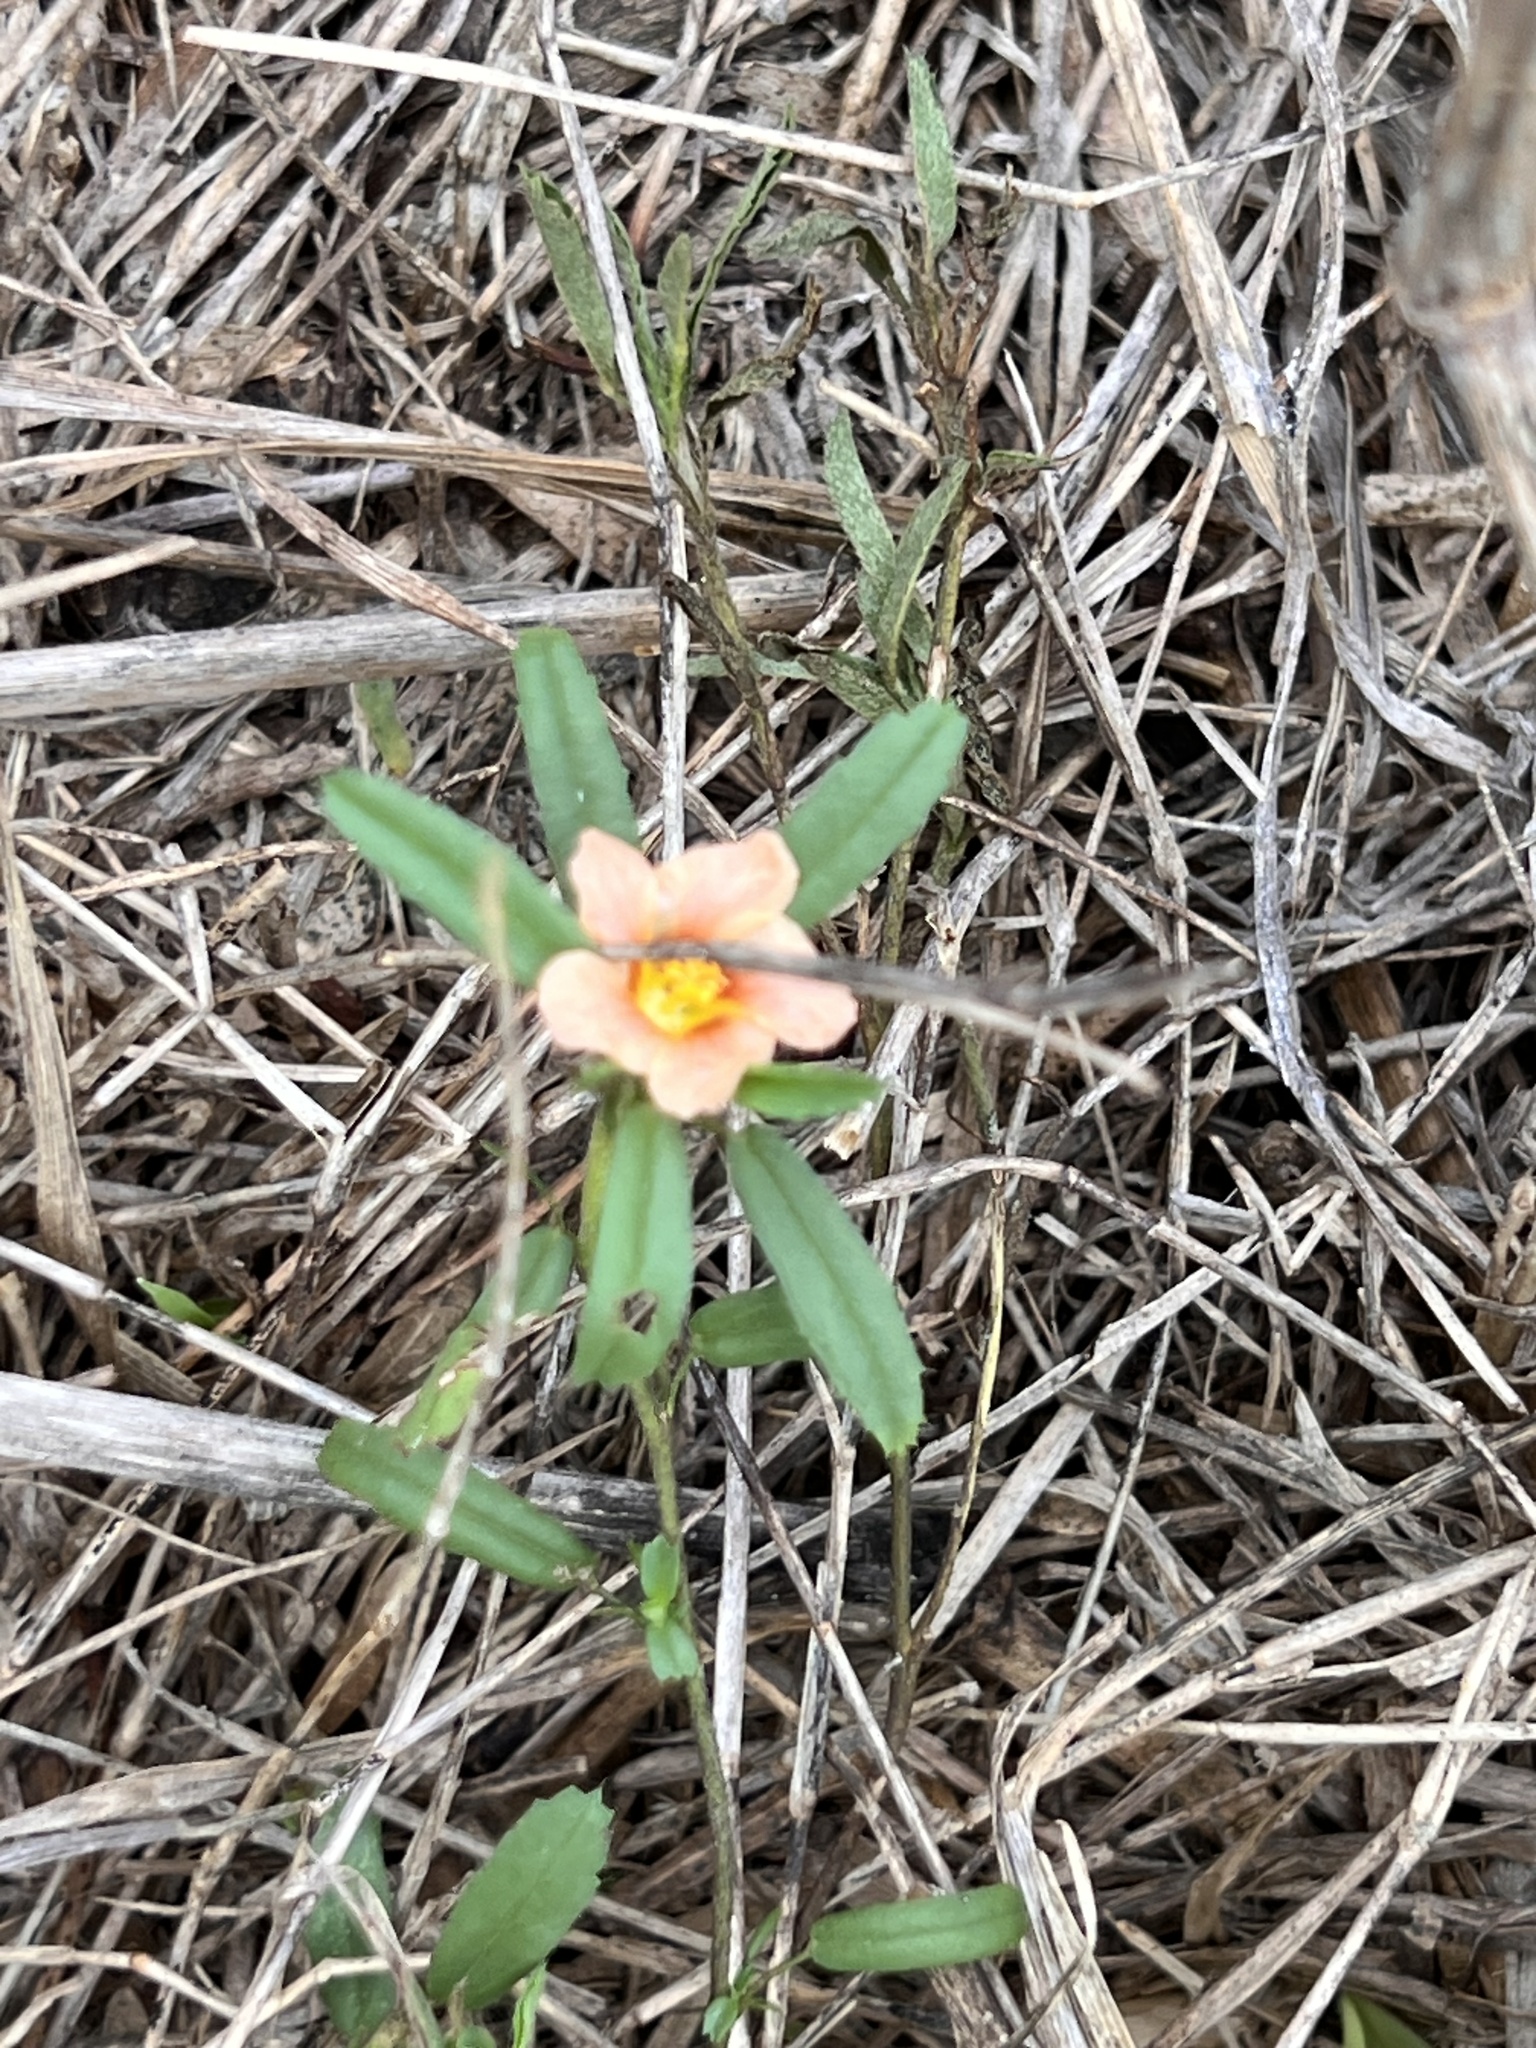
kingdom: Plantae
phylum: Tracheophyta
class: Magnoliopsida
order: Malvales
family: Malvaceae
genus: Sida
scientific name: Sida ciliaris
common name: Bracted fanpetals
